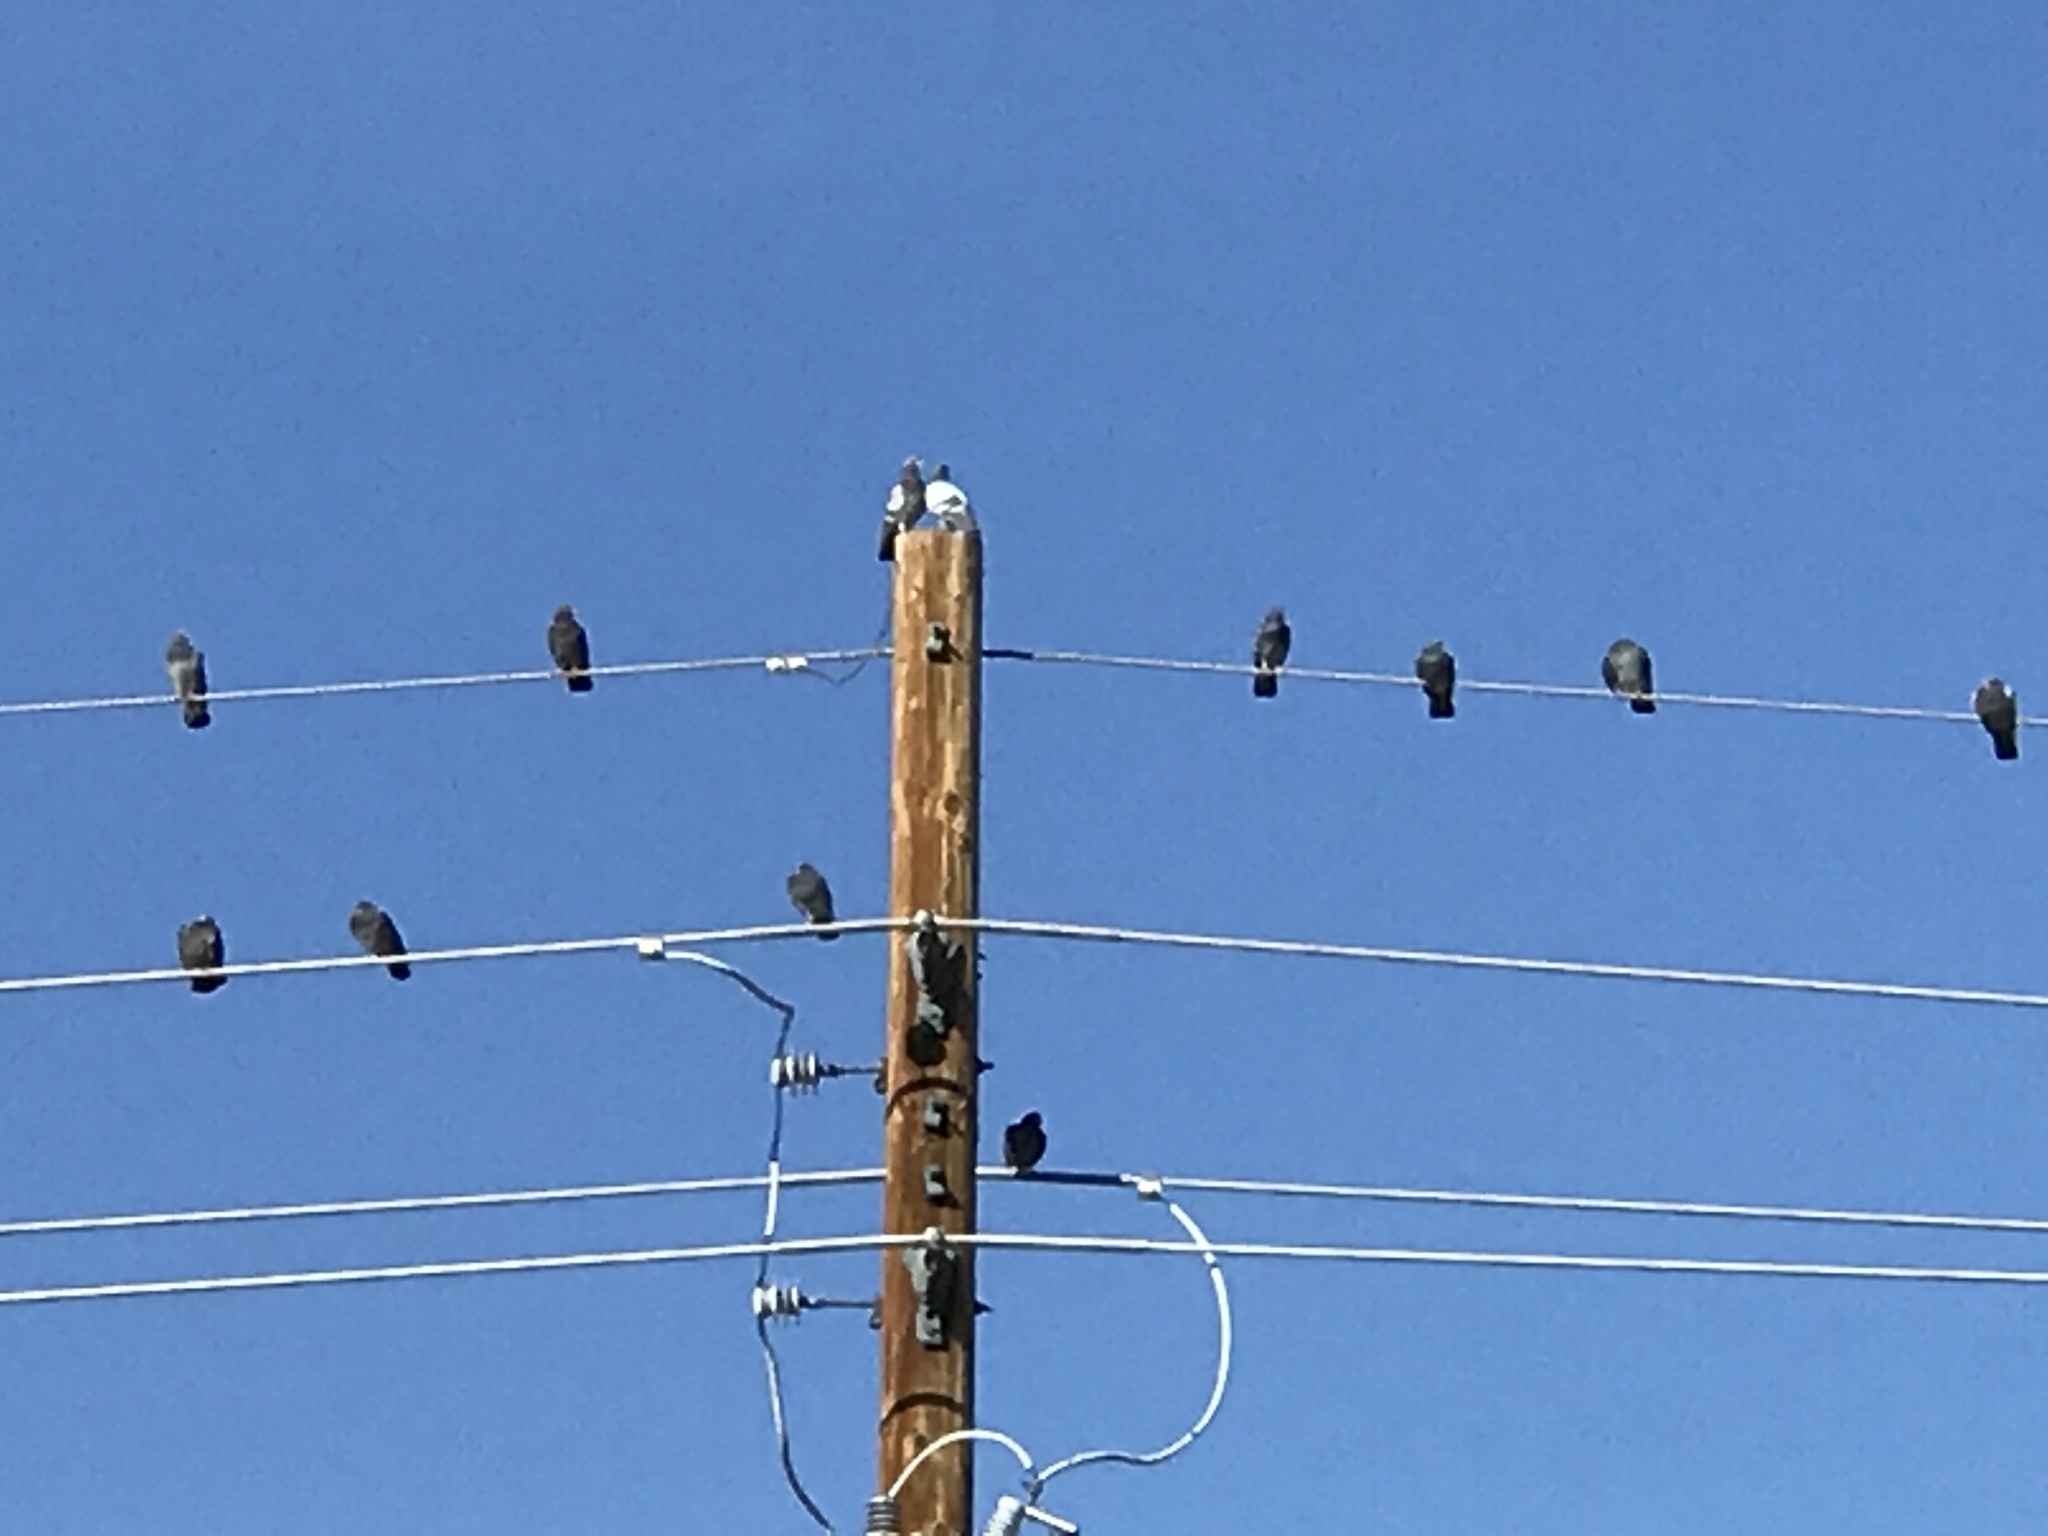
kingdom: Animalia
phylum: Chordata
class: Aves
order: Columbiformes
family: Columbidae
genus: Columba
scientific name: Columba livia
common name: Rock pigeon
